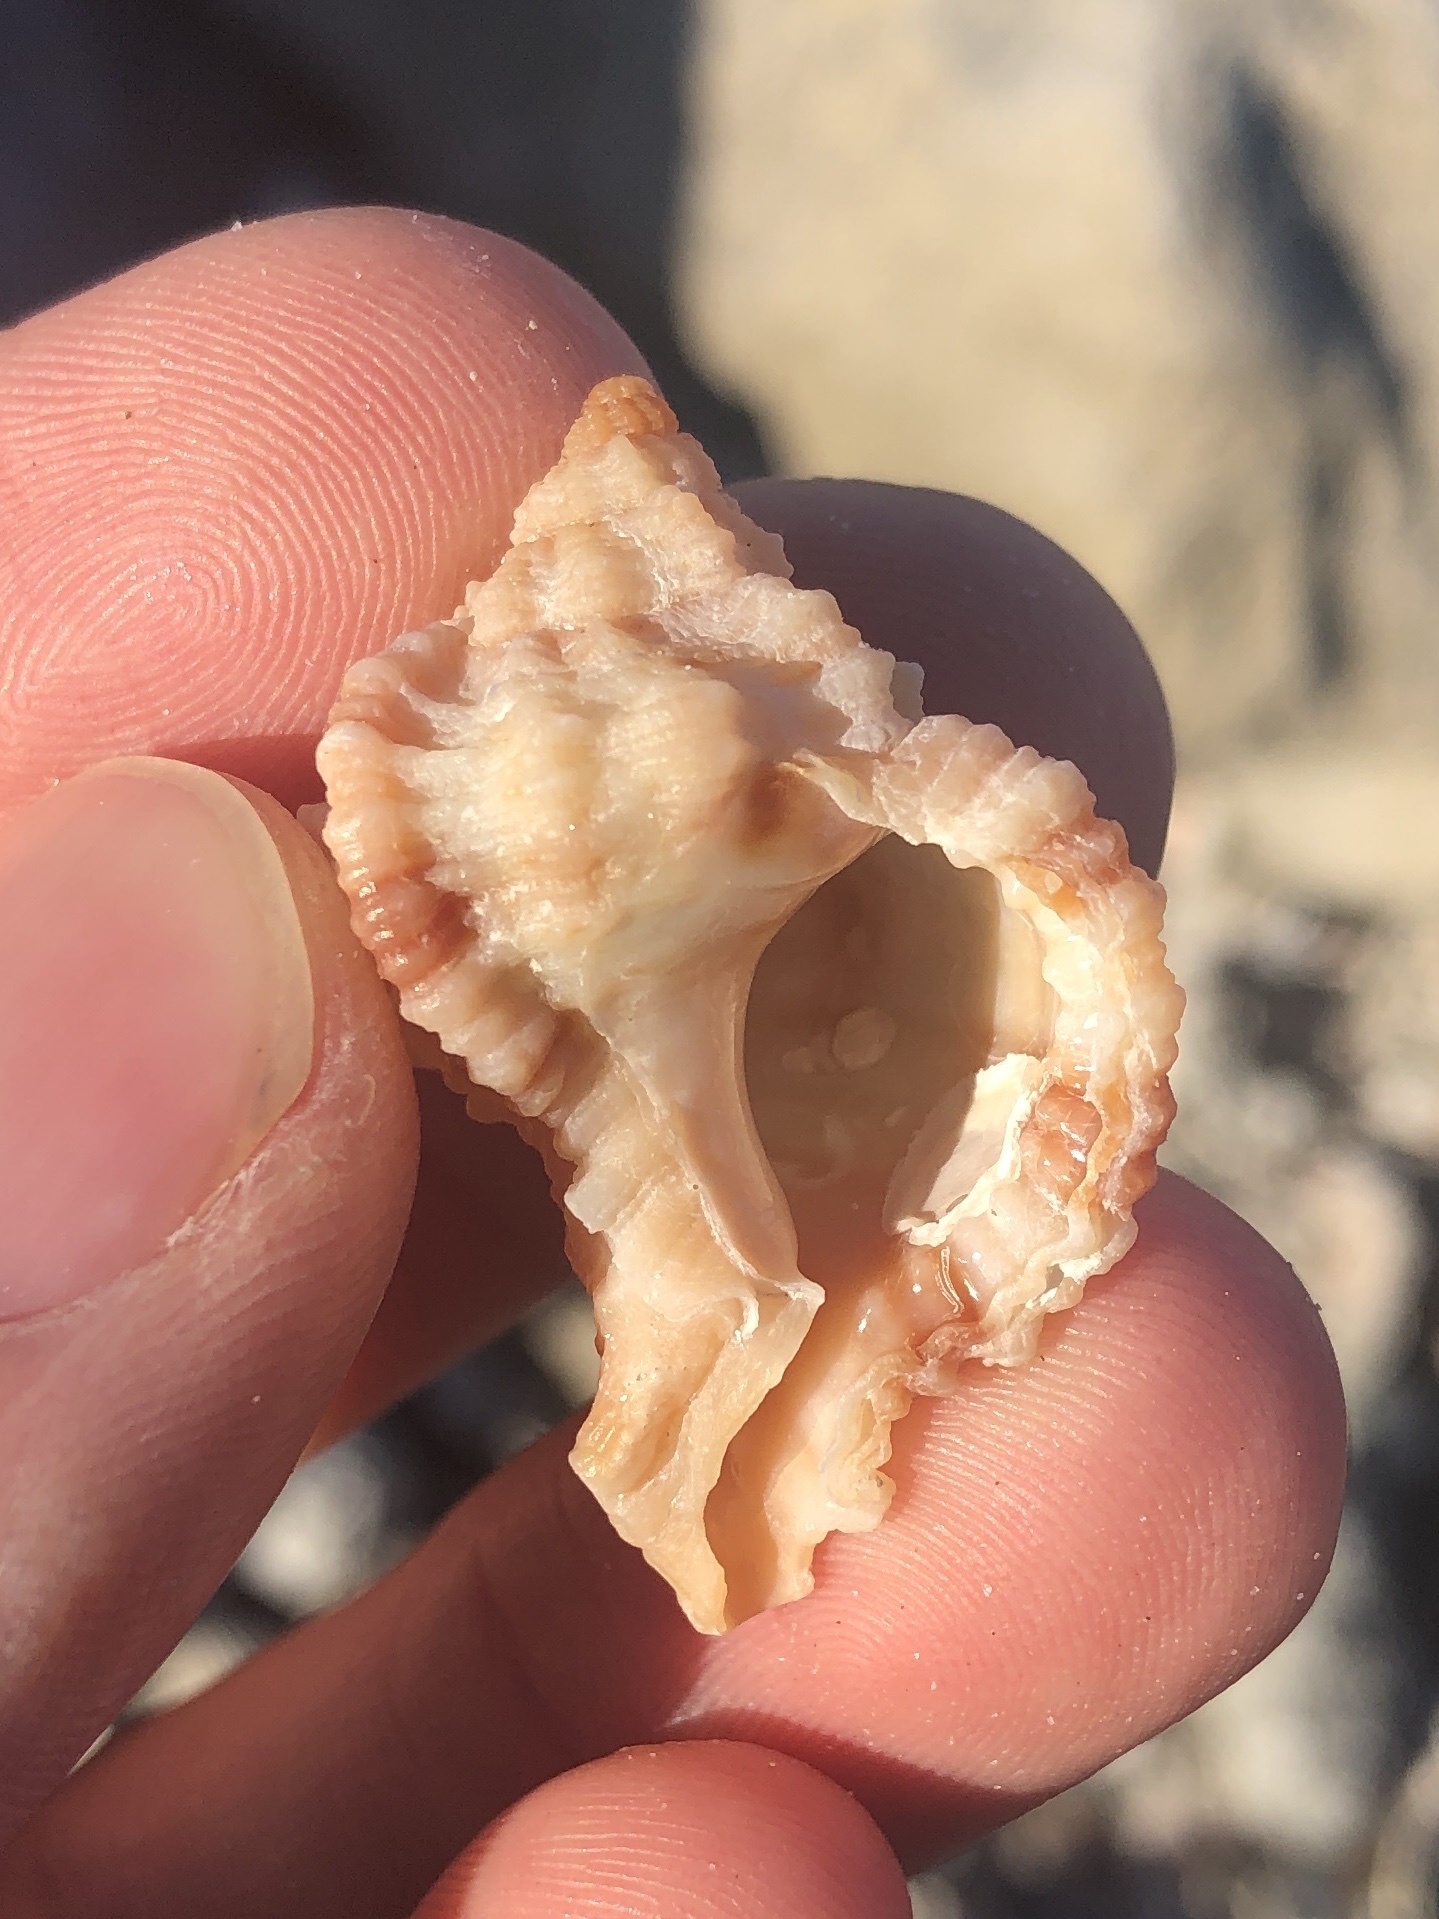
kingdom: Animalia
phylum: Mollusca
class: Gastropoda
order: Neogastropoda
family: Muricidae
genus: Phyllonotus
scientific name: Phyllonotus pomum
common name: Apple murex
